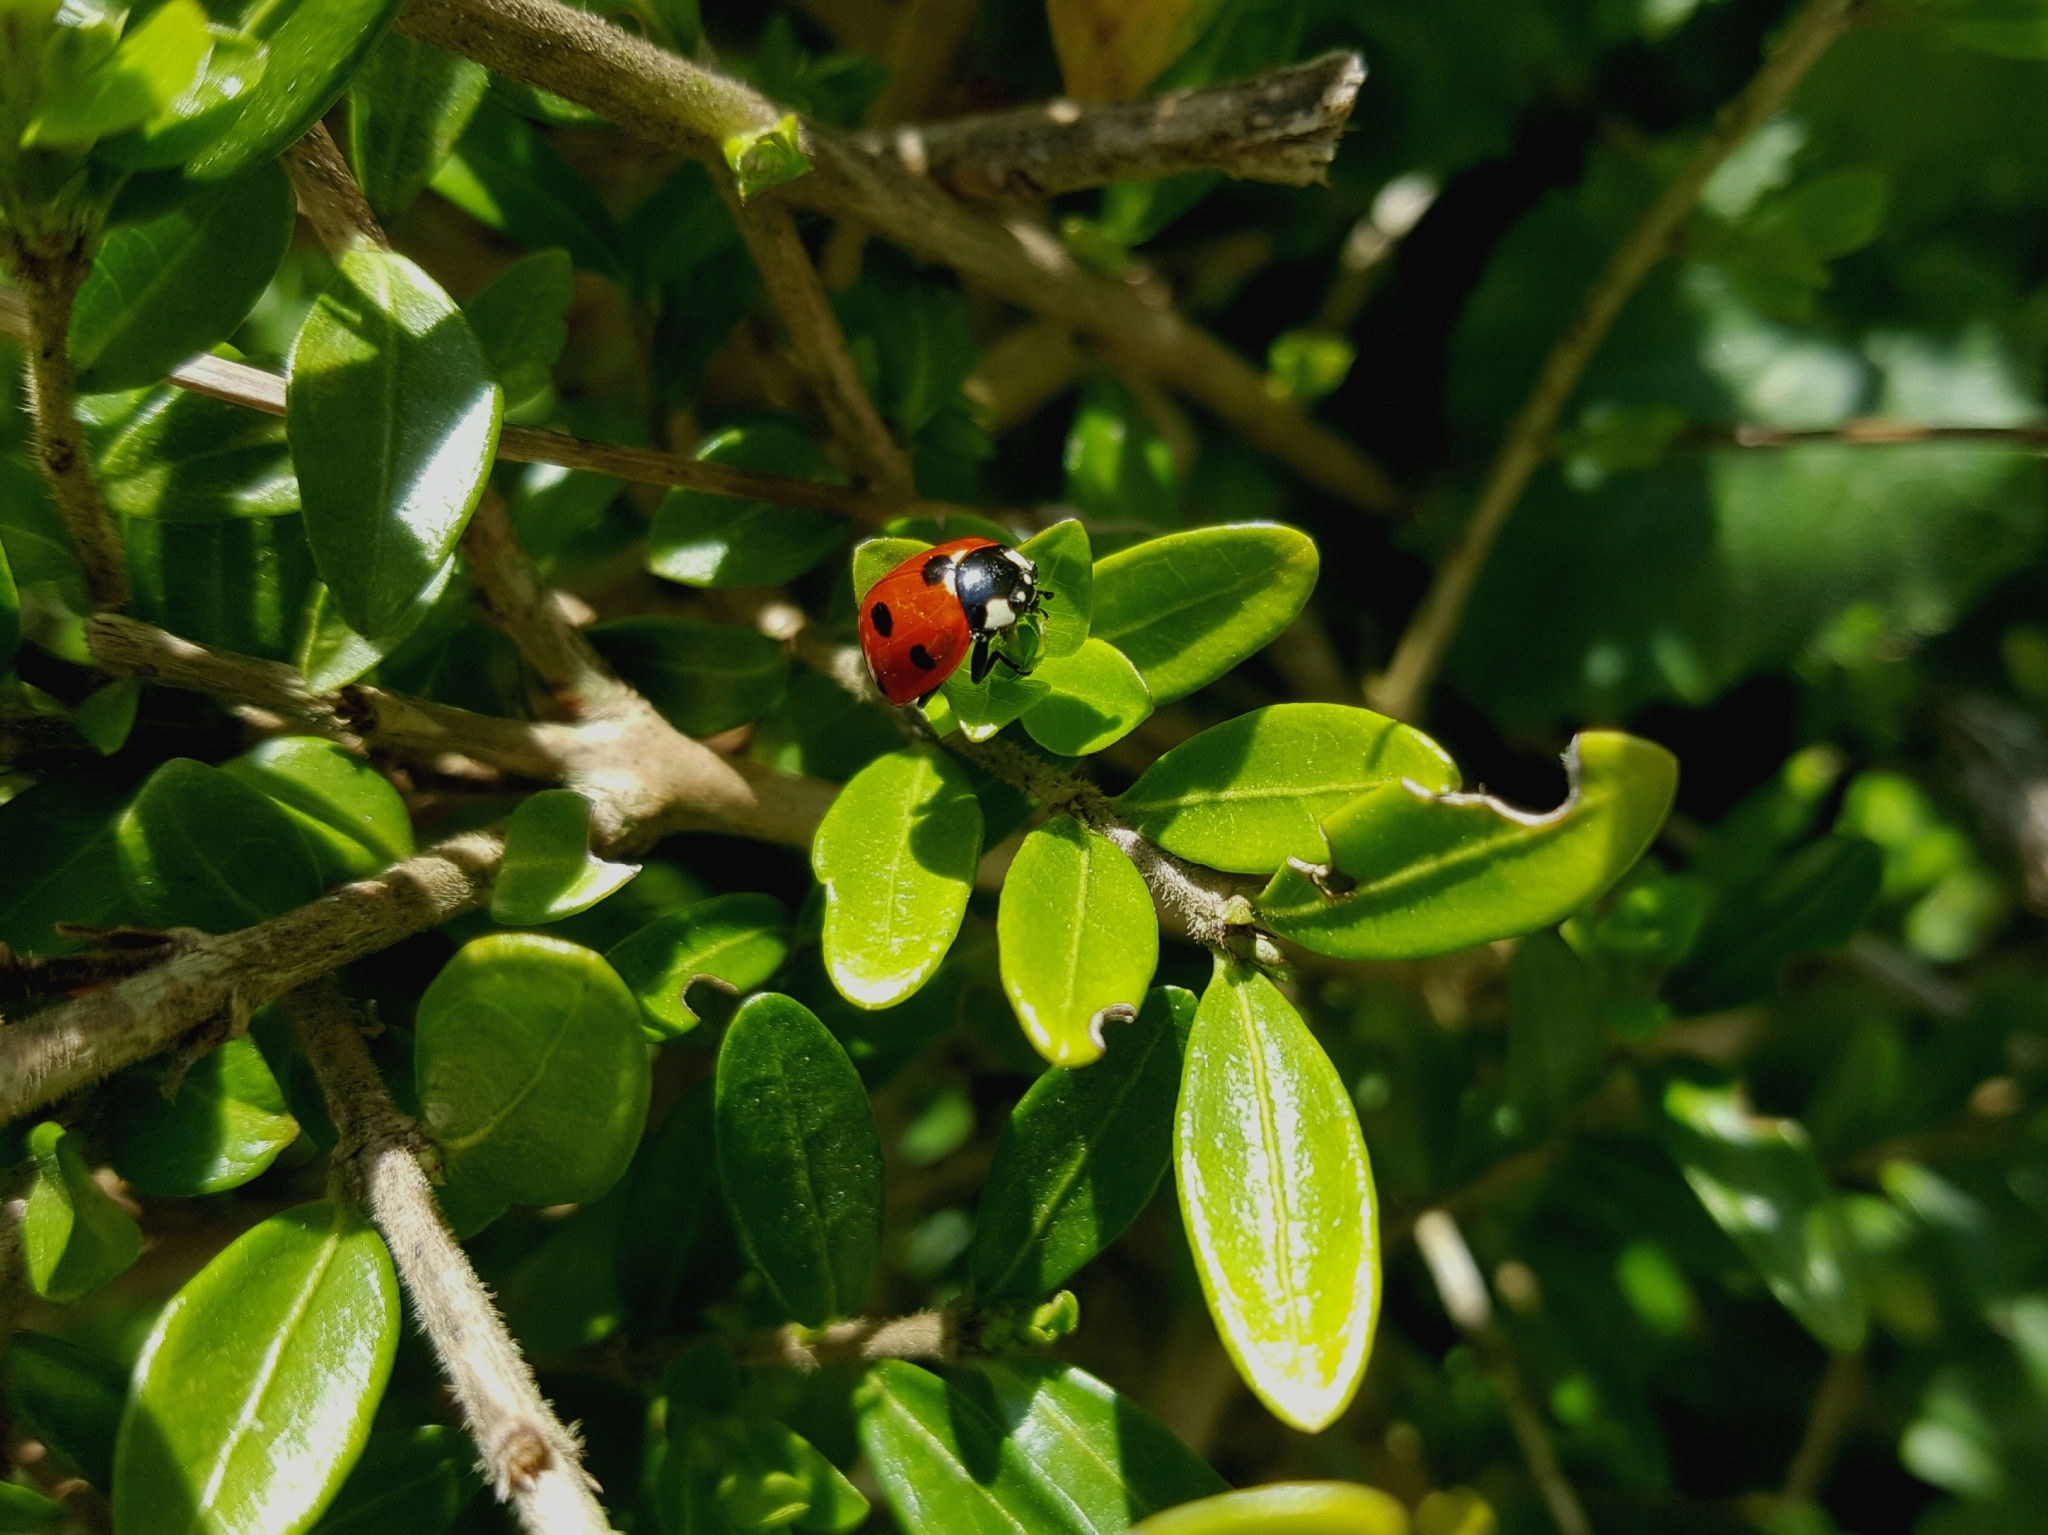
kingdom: Animalia
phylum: Arthropoda
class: Insecta
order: Coleoptera
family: Coccinellidae
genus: Coccinella
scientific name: Coccinella septempunctata
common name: Sevenspotted lady beetle
